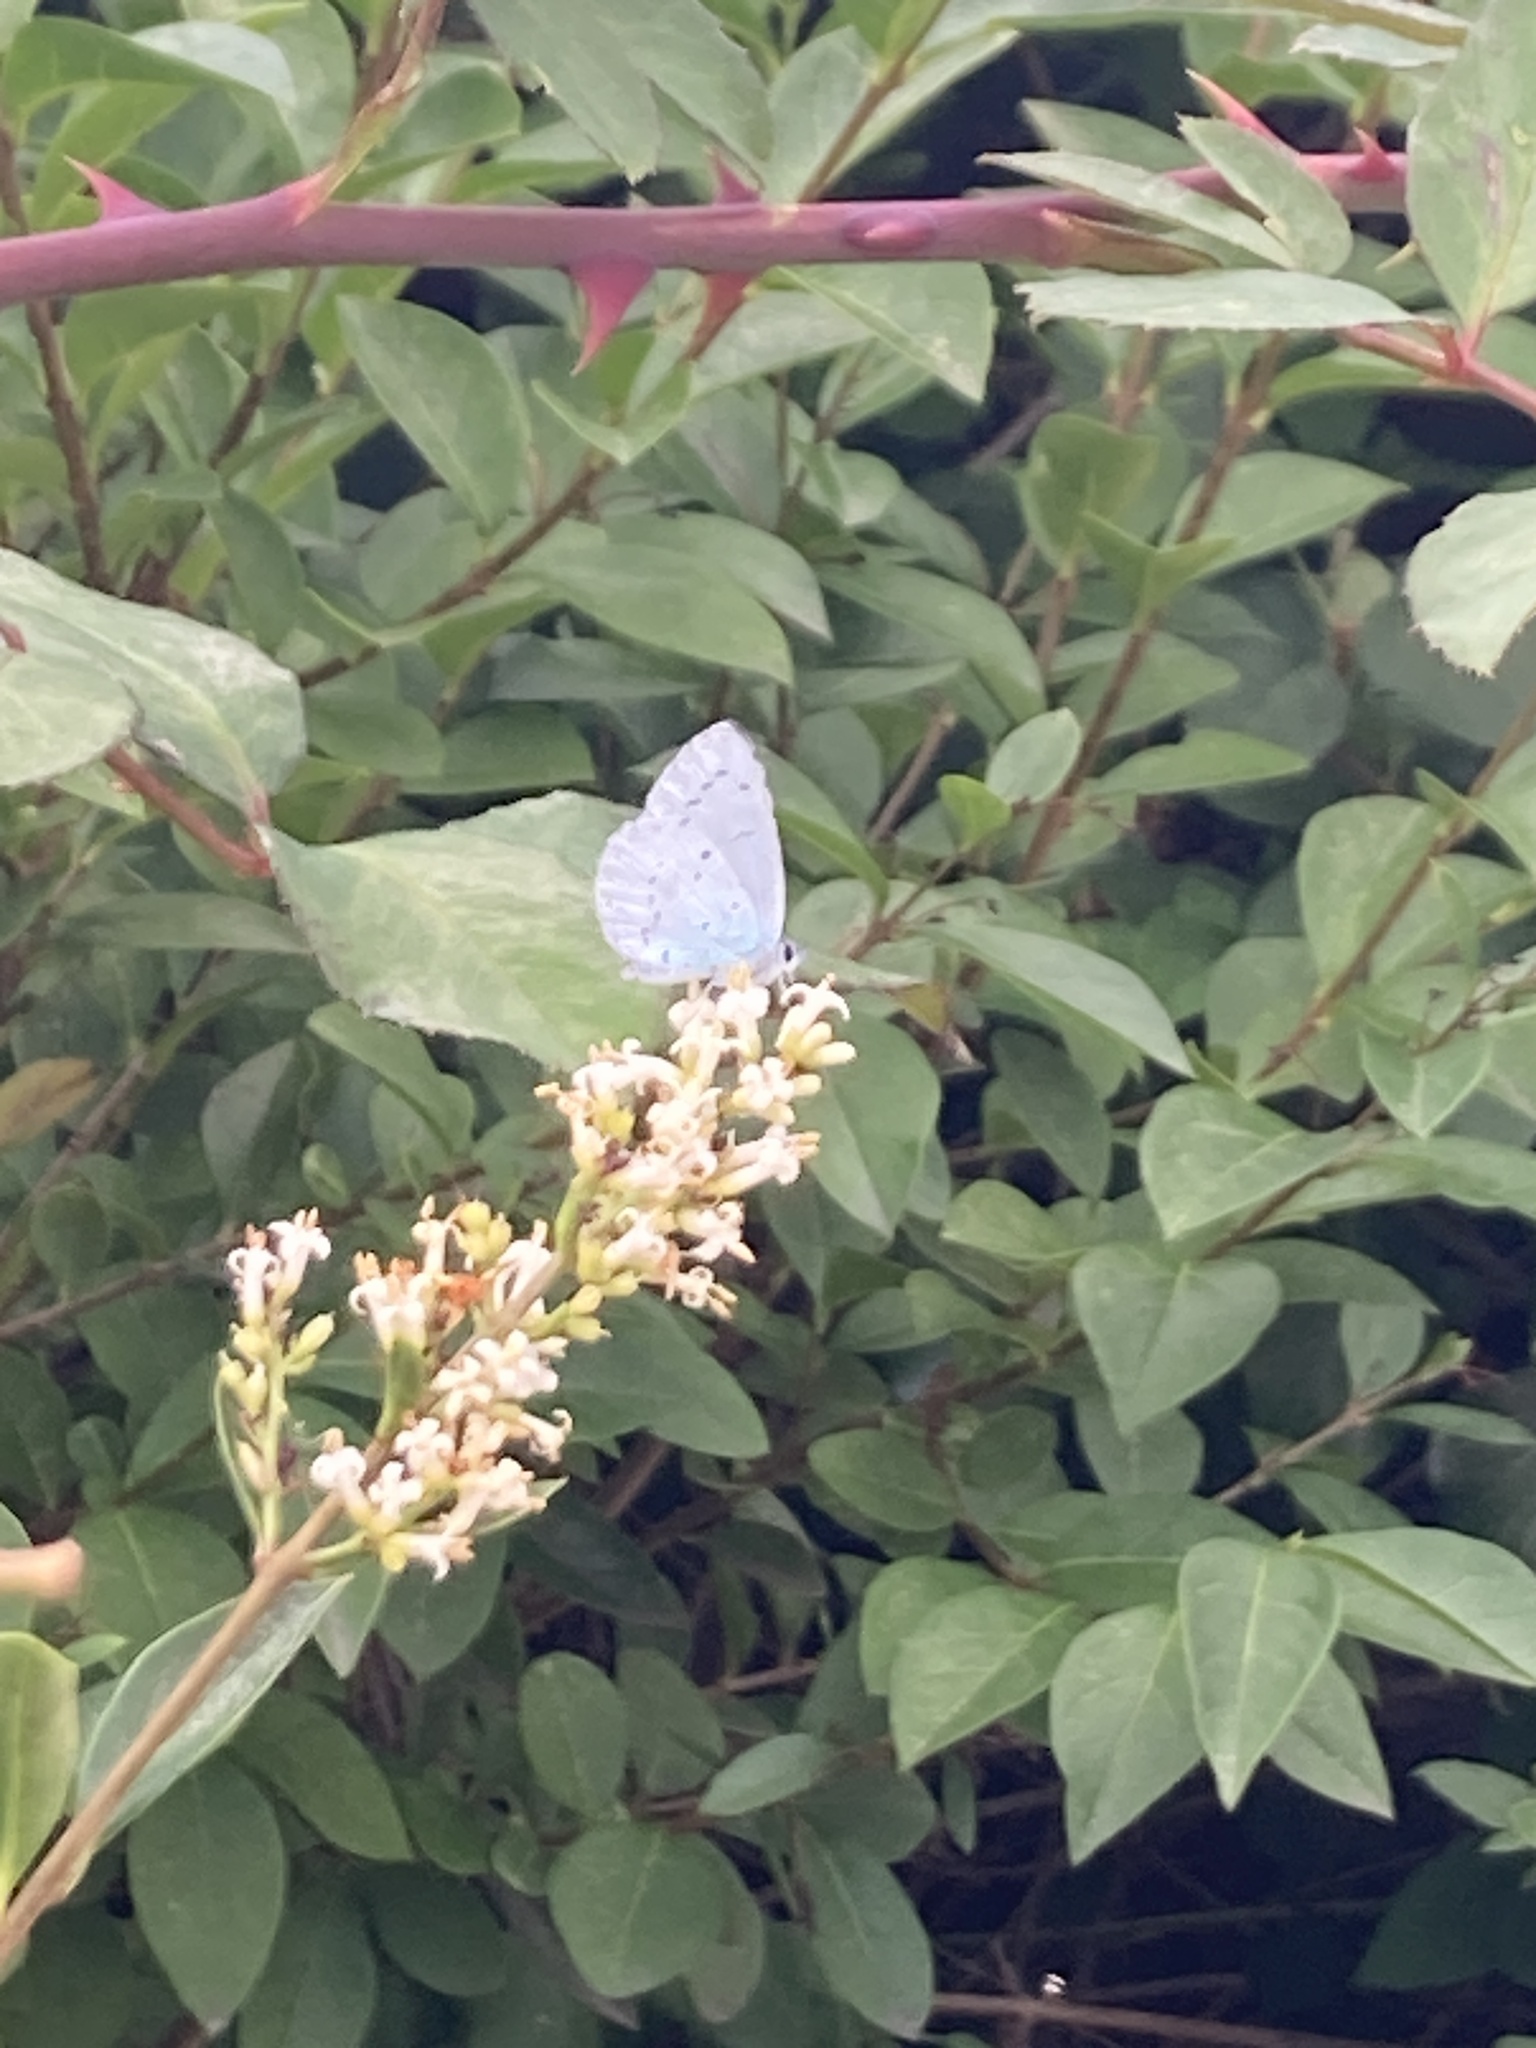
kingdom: Animalia
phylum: Arthropoda
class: Insecta
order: Lepidoptera
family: Lycaenidae
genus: Celastrina
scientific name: Celastrina argiolus
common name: Holly blue
